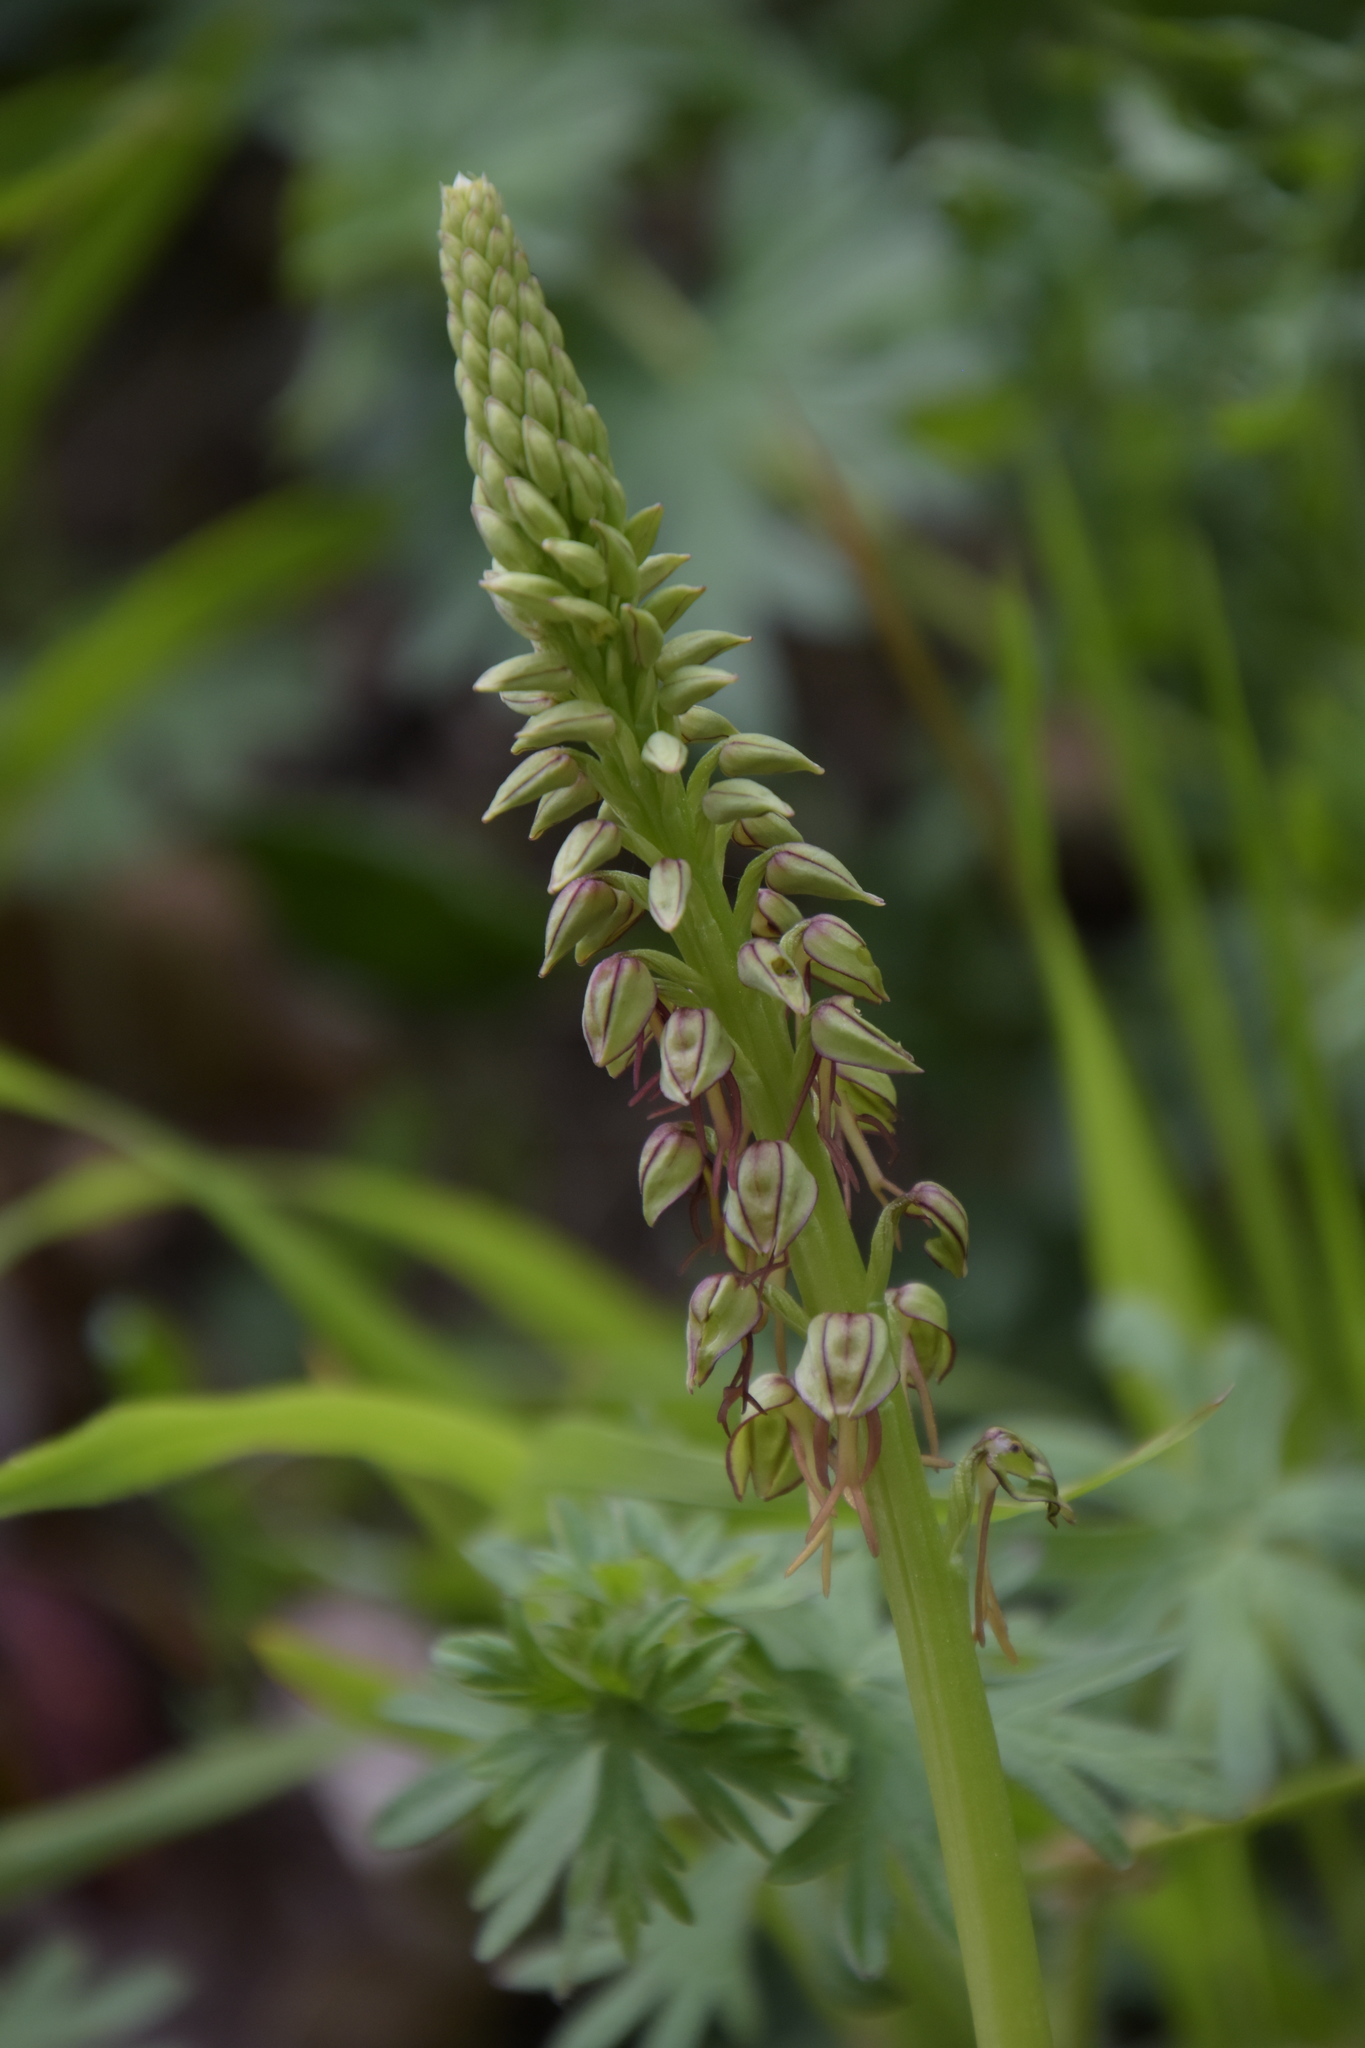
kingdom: Plantae
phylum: Tracheophyta
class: Liliopsida
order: Asparagales
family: Orchidaceae
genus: Orchis
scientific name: Orchis anthropophora
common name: Man orchid
